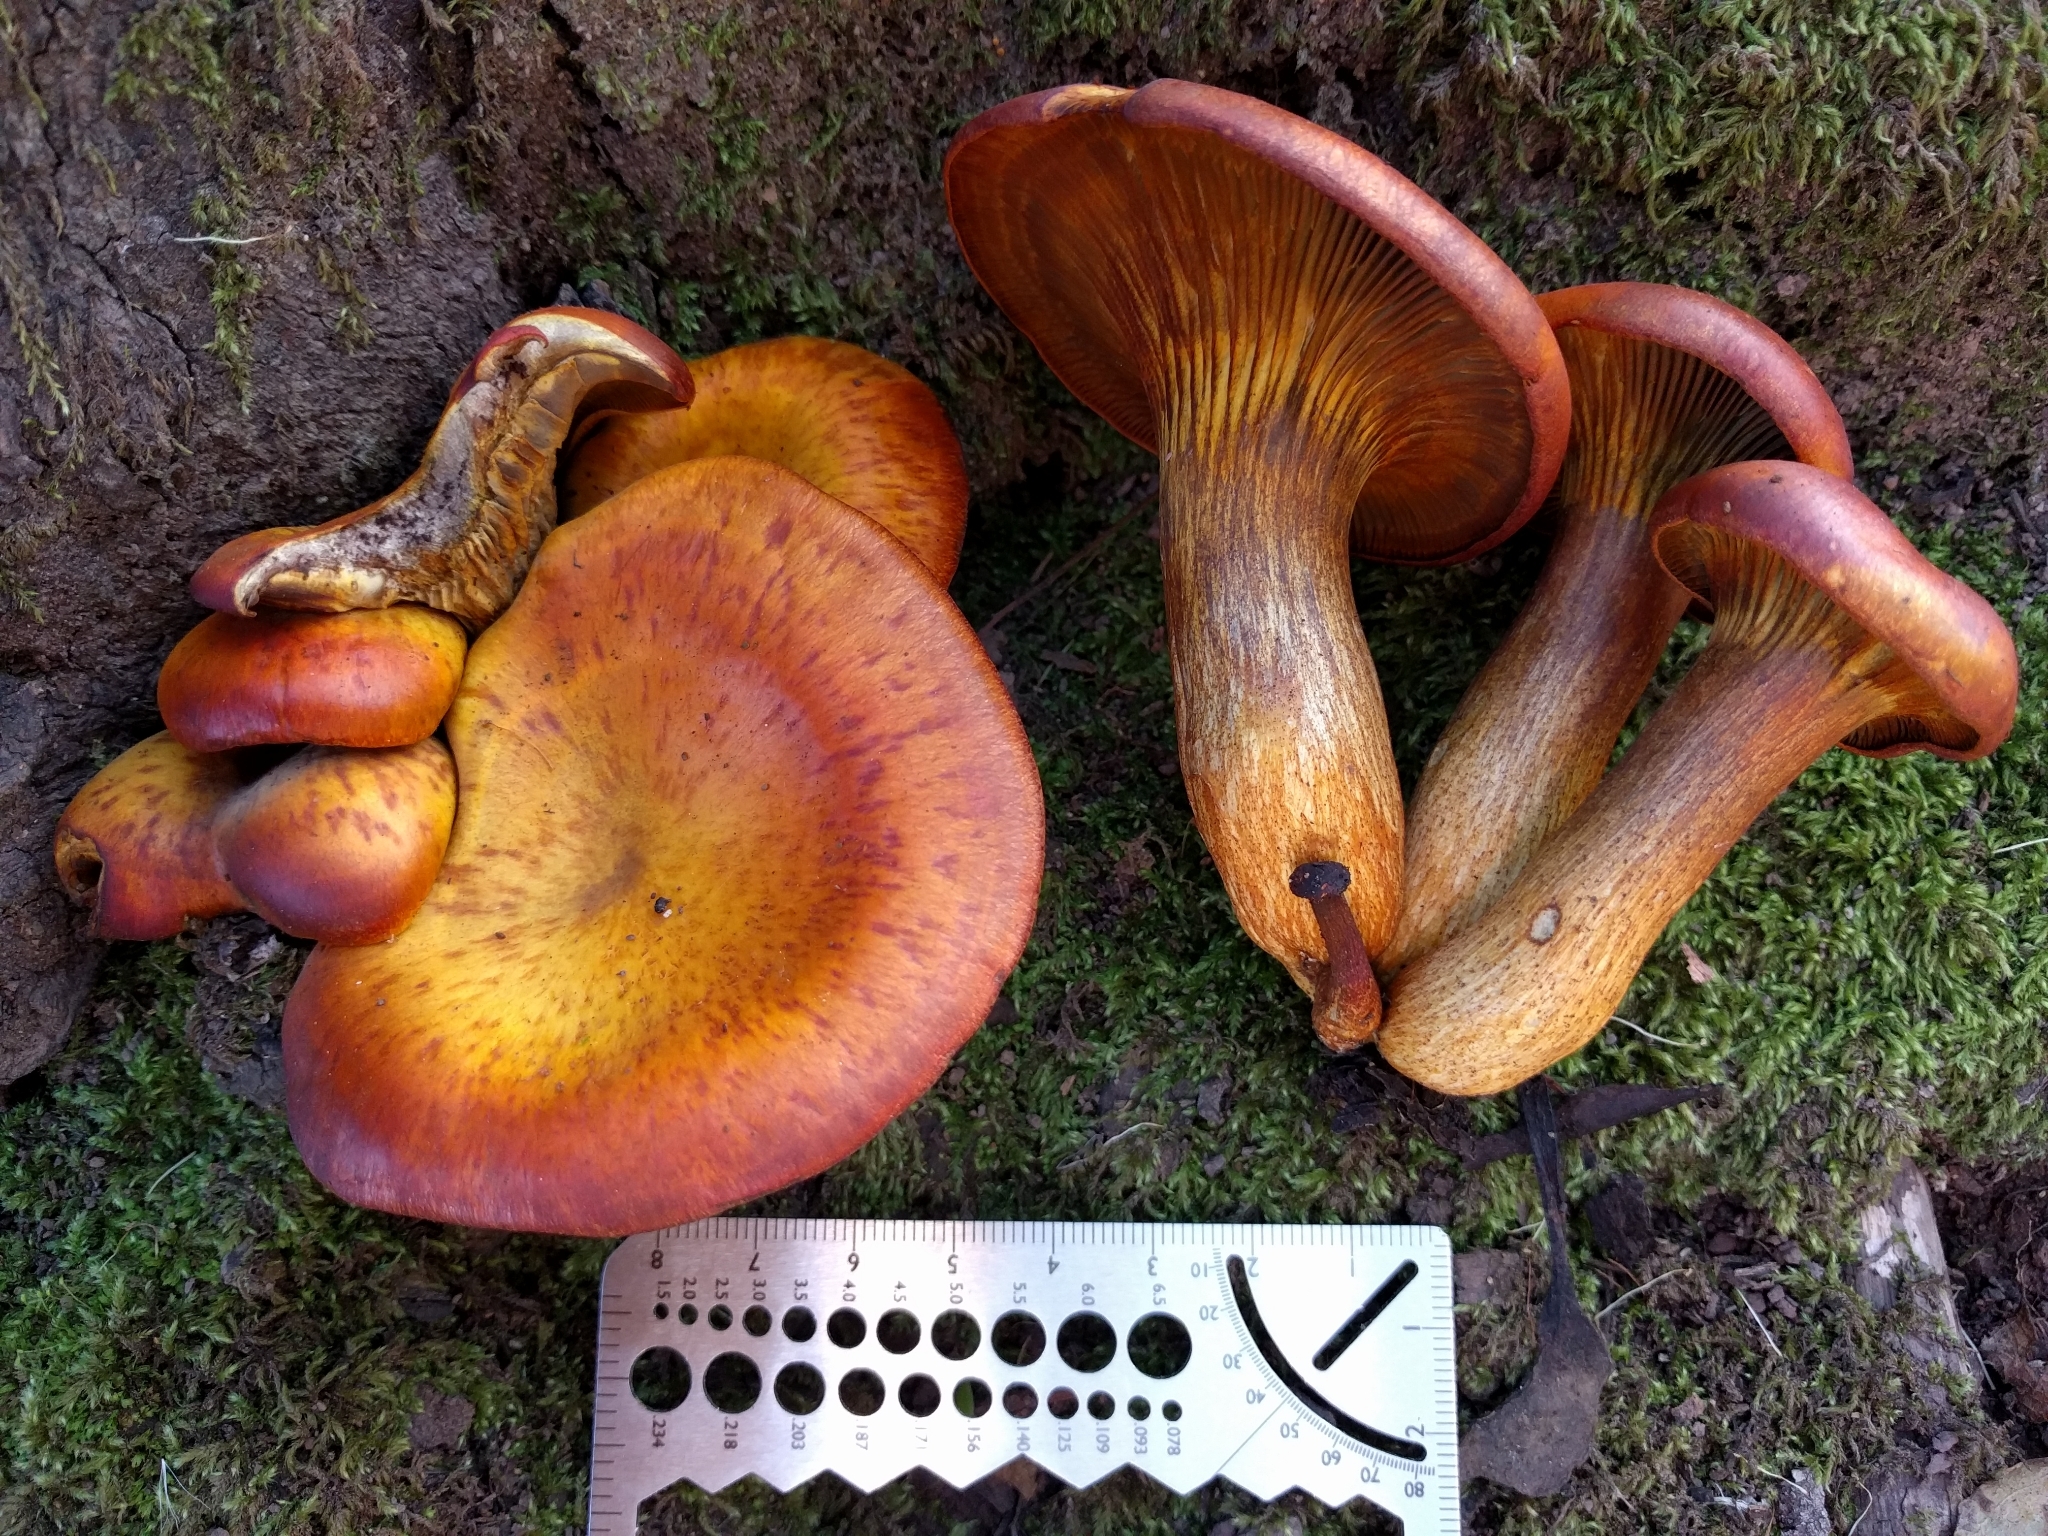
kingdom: Fungi
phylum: Basidiomycota
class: Agaricomycetes
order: Agaricales
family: Omphalotaceae
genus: Omphalotus
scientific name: Omphalotus olivascens
